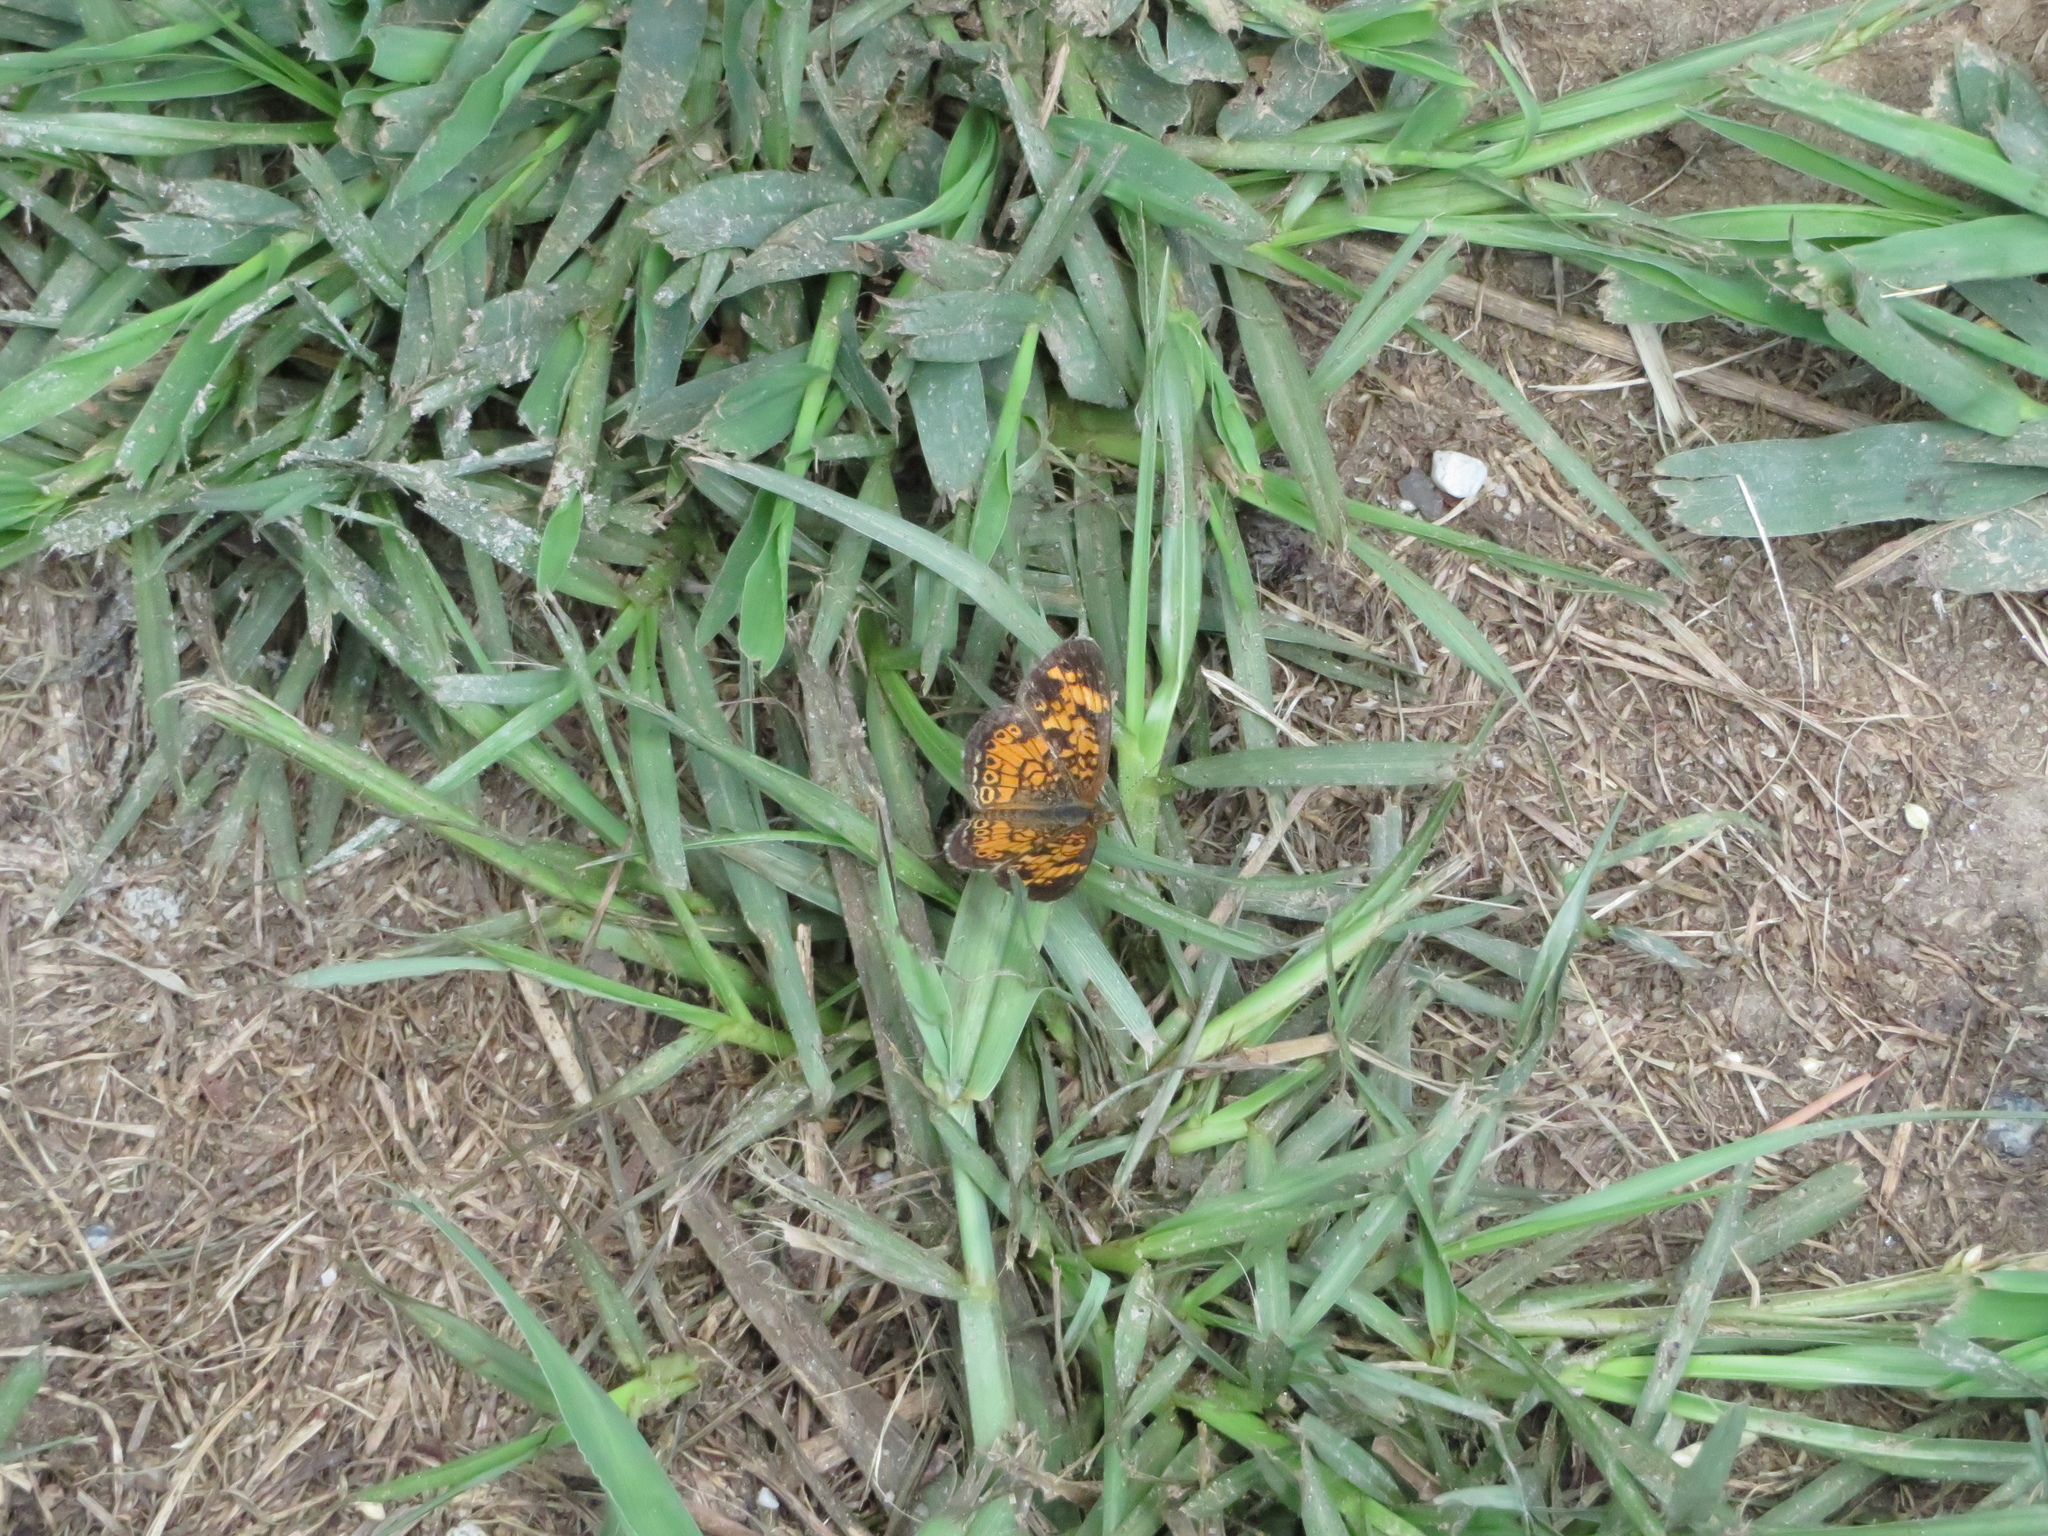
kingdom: Animalia
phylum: Arthropoda
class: Insecta
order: Lepidoptera
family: Nymphalidae
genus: Phyciodes
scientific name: Phyciodes tharos
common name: Pearl crescent
